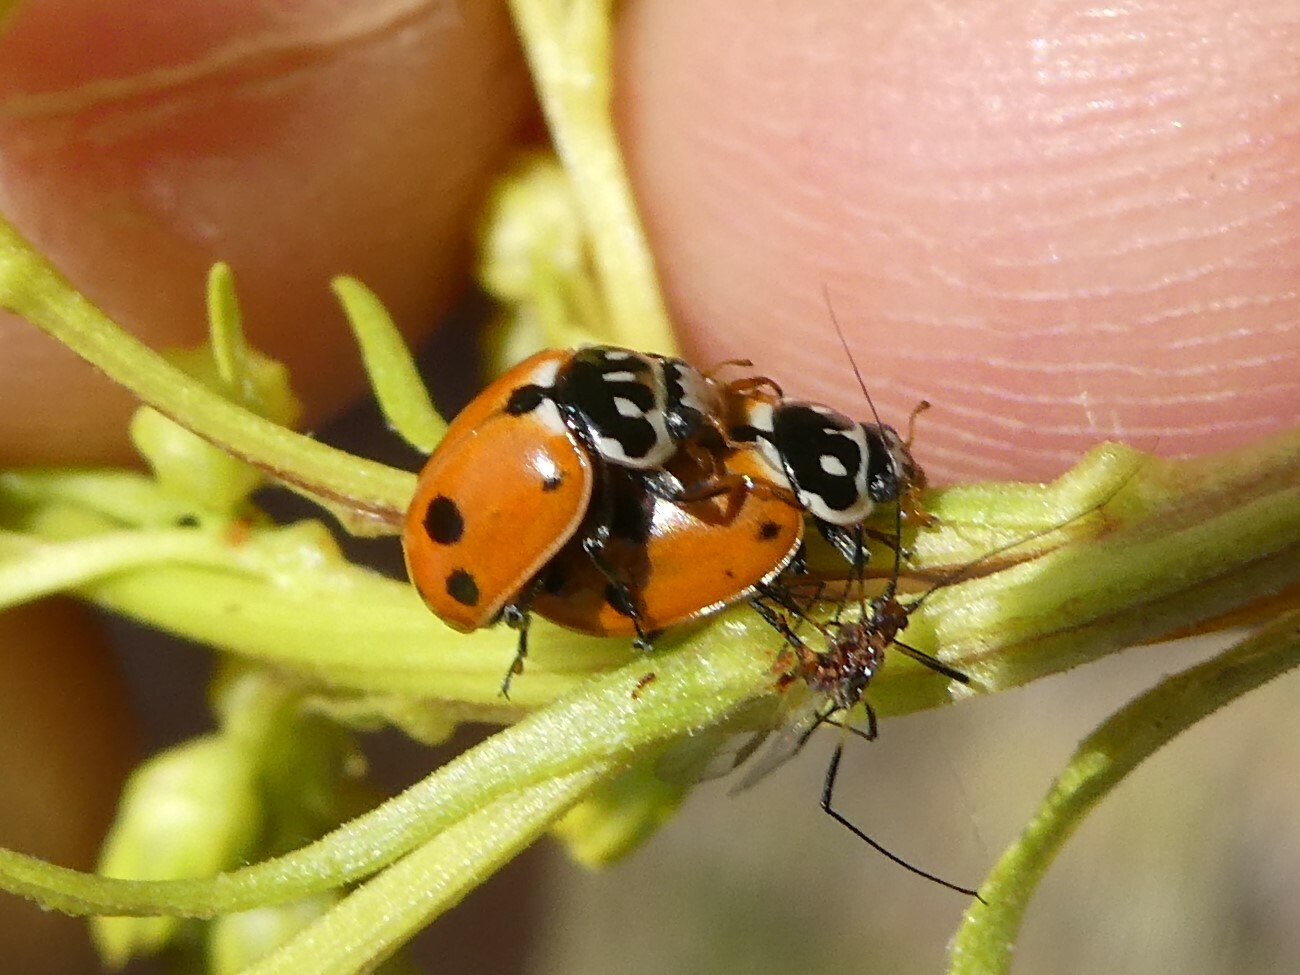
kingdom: Animalia
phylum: Arthropoda
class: Insecta
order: Coleoptera
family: Coccinellidae
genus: Hippodamia
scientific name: Hippodamia variegata
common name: Ladybird beetle
